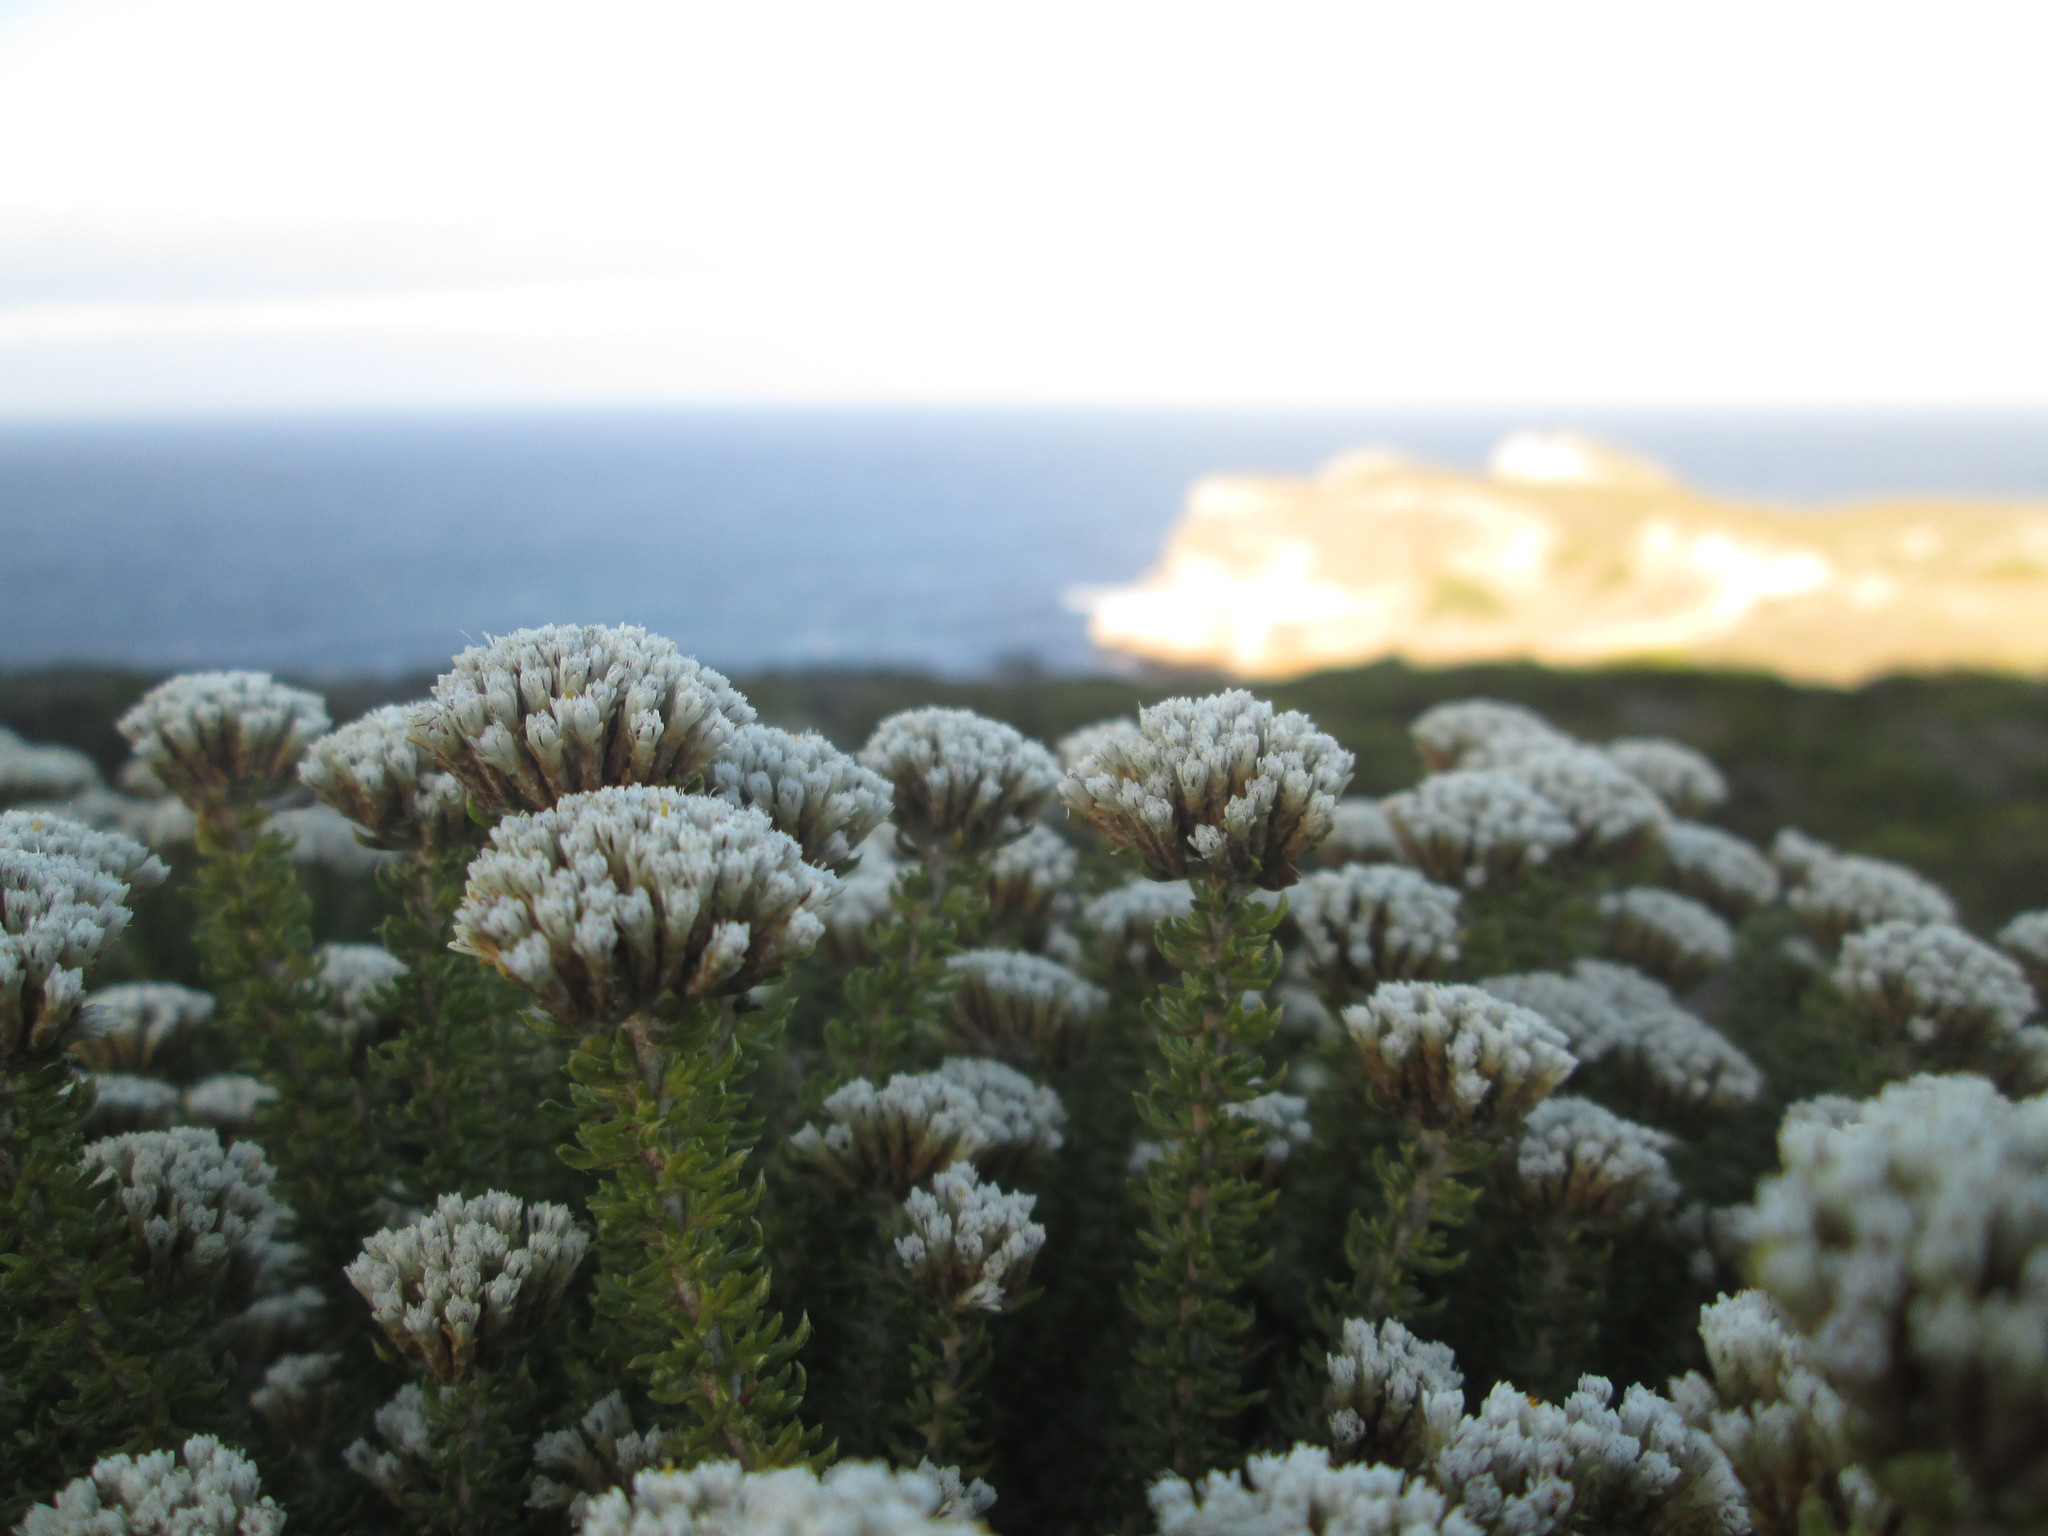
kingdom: Plantae
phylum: Tracheophyta
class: Magnoliopsida
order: Asterales
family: Asteraceae
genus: Metalasia
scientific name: Metalasia muricata
